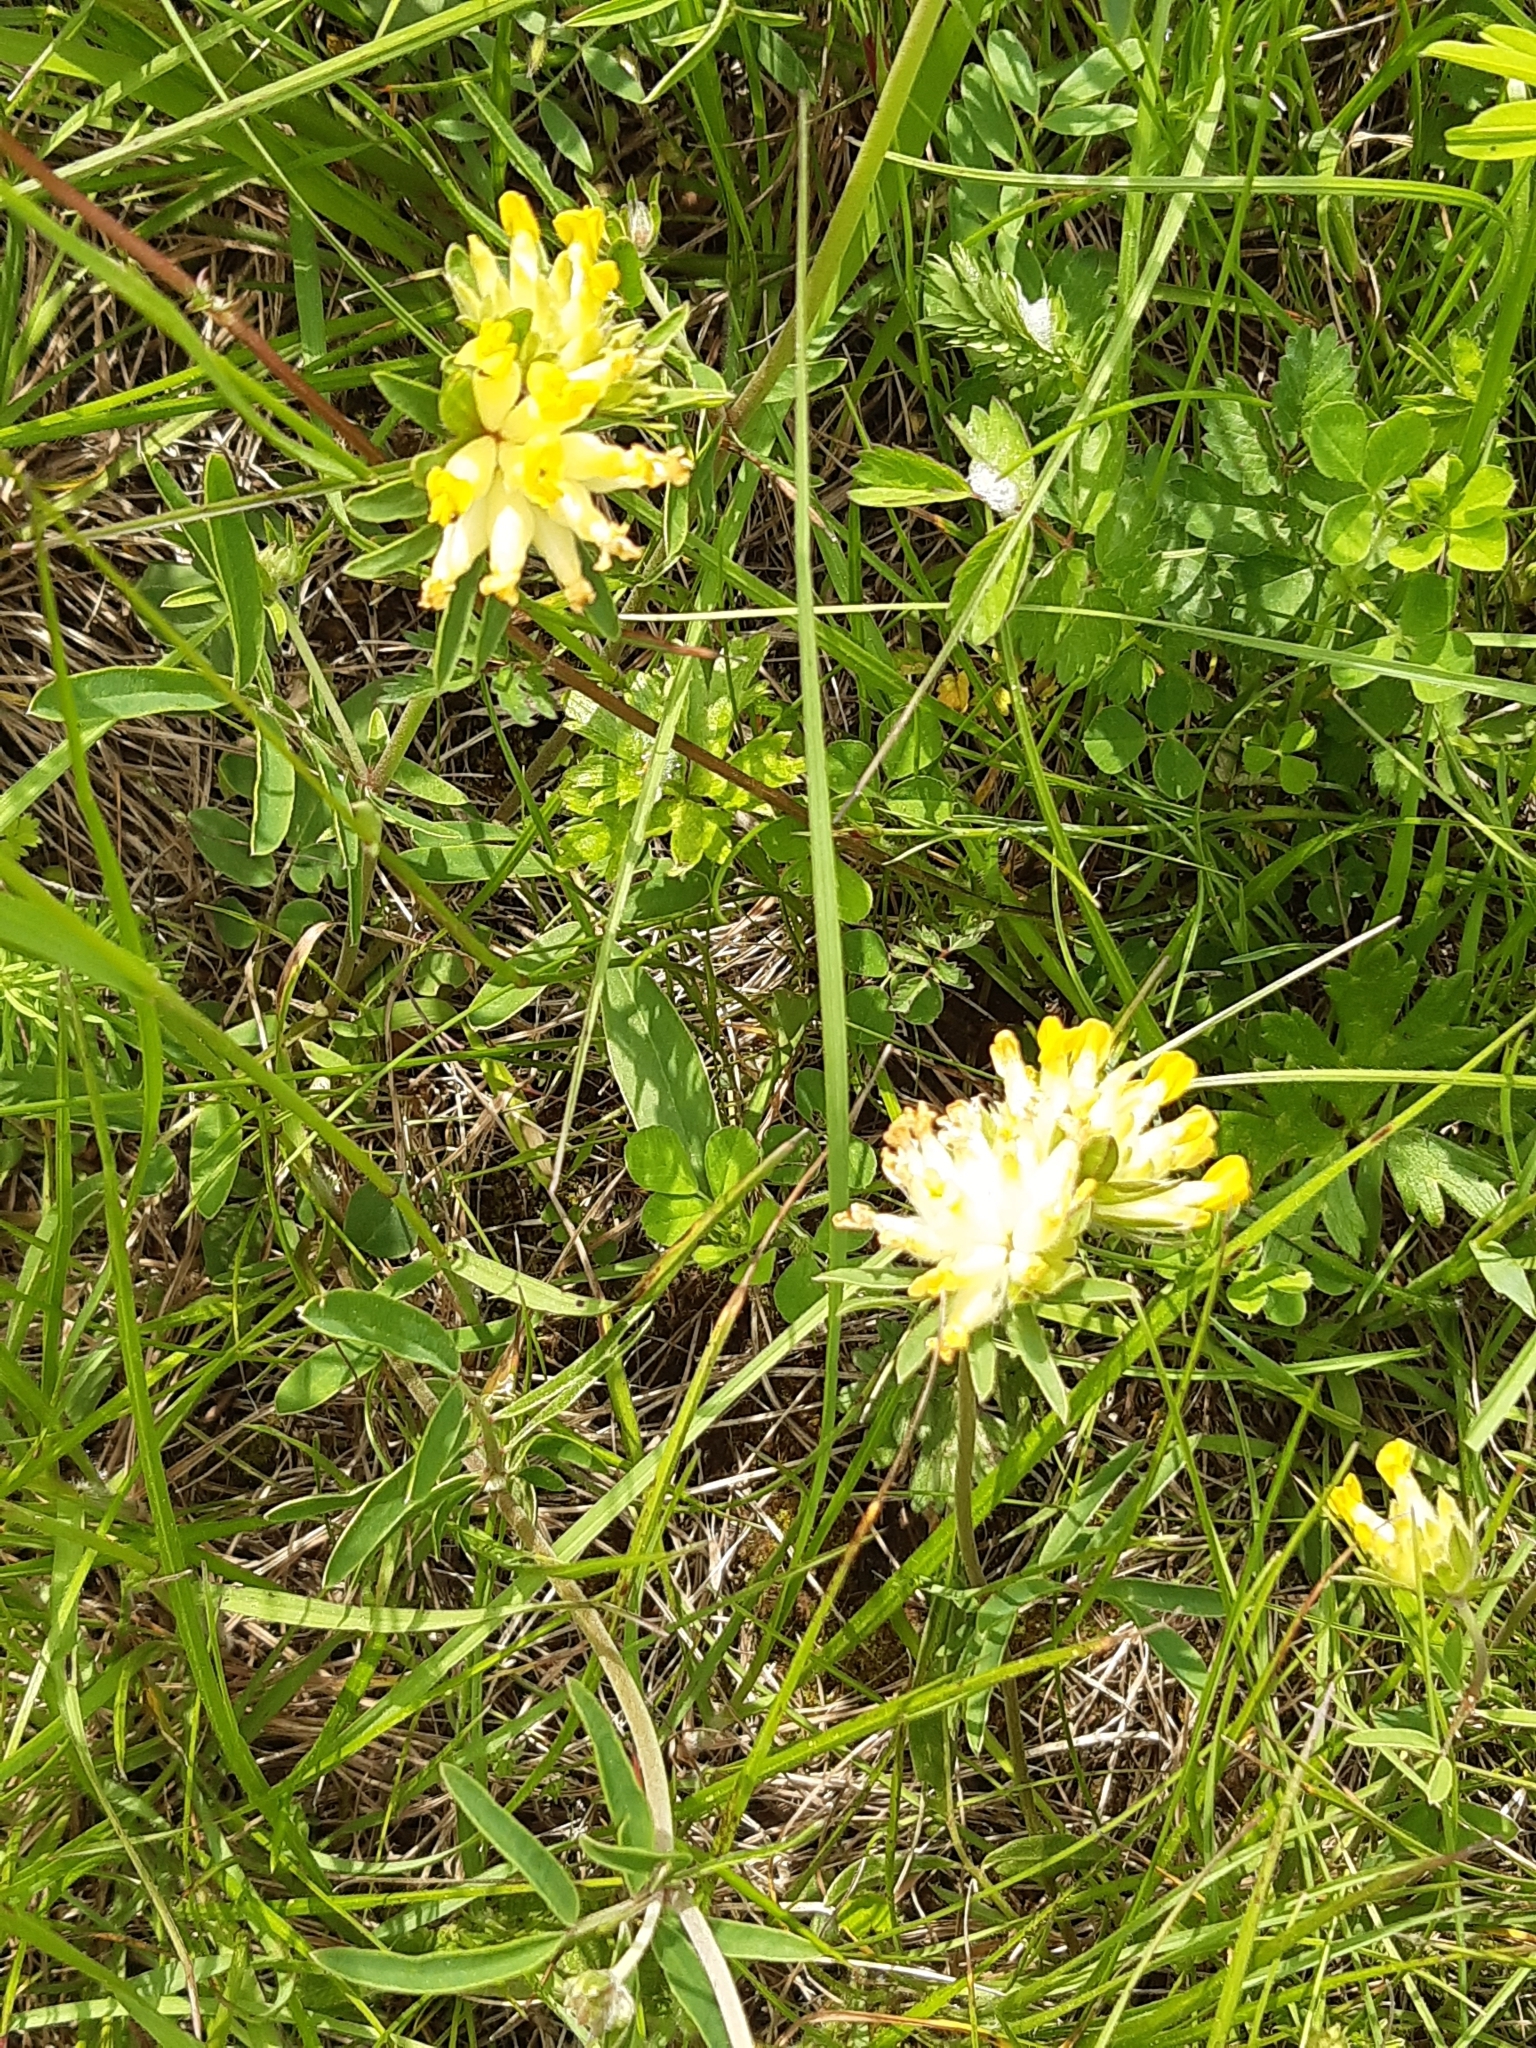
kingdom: Plantae
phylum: Tracheophyta
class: Magnoliopsida
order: Fabales
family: Fabaceae
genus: Anthyllis
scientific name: Anthyllis vulneraria
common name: Kidney vetch
